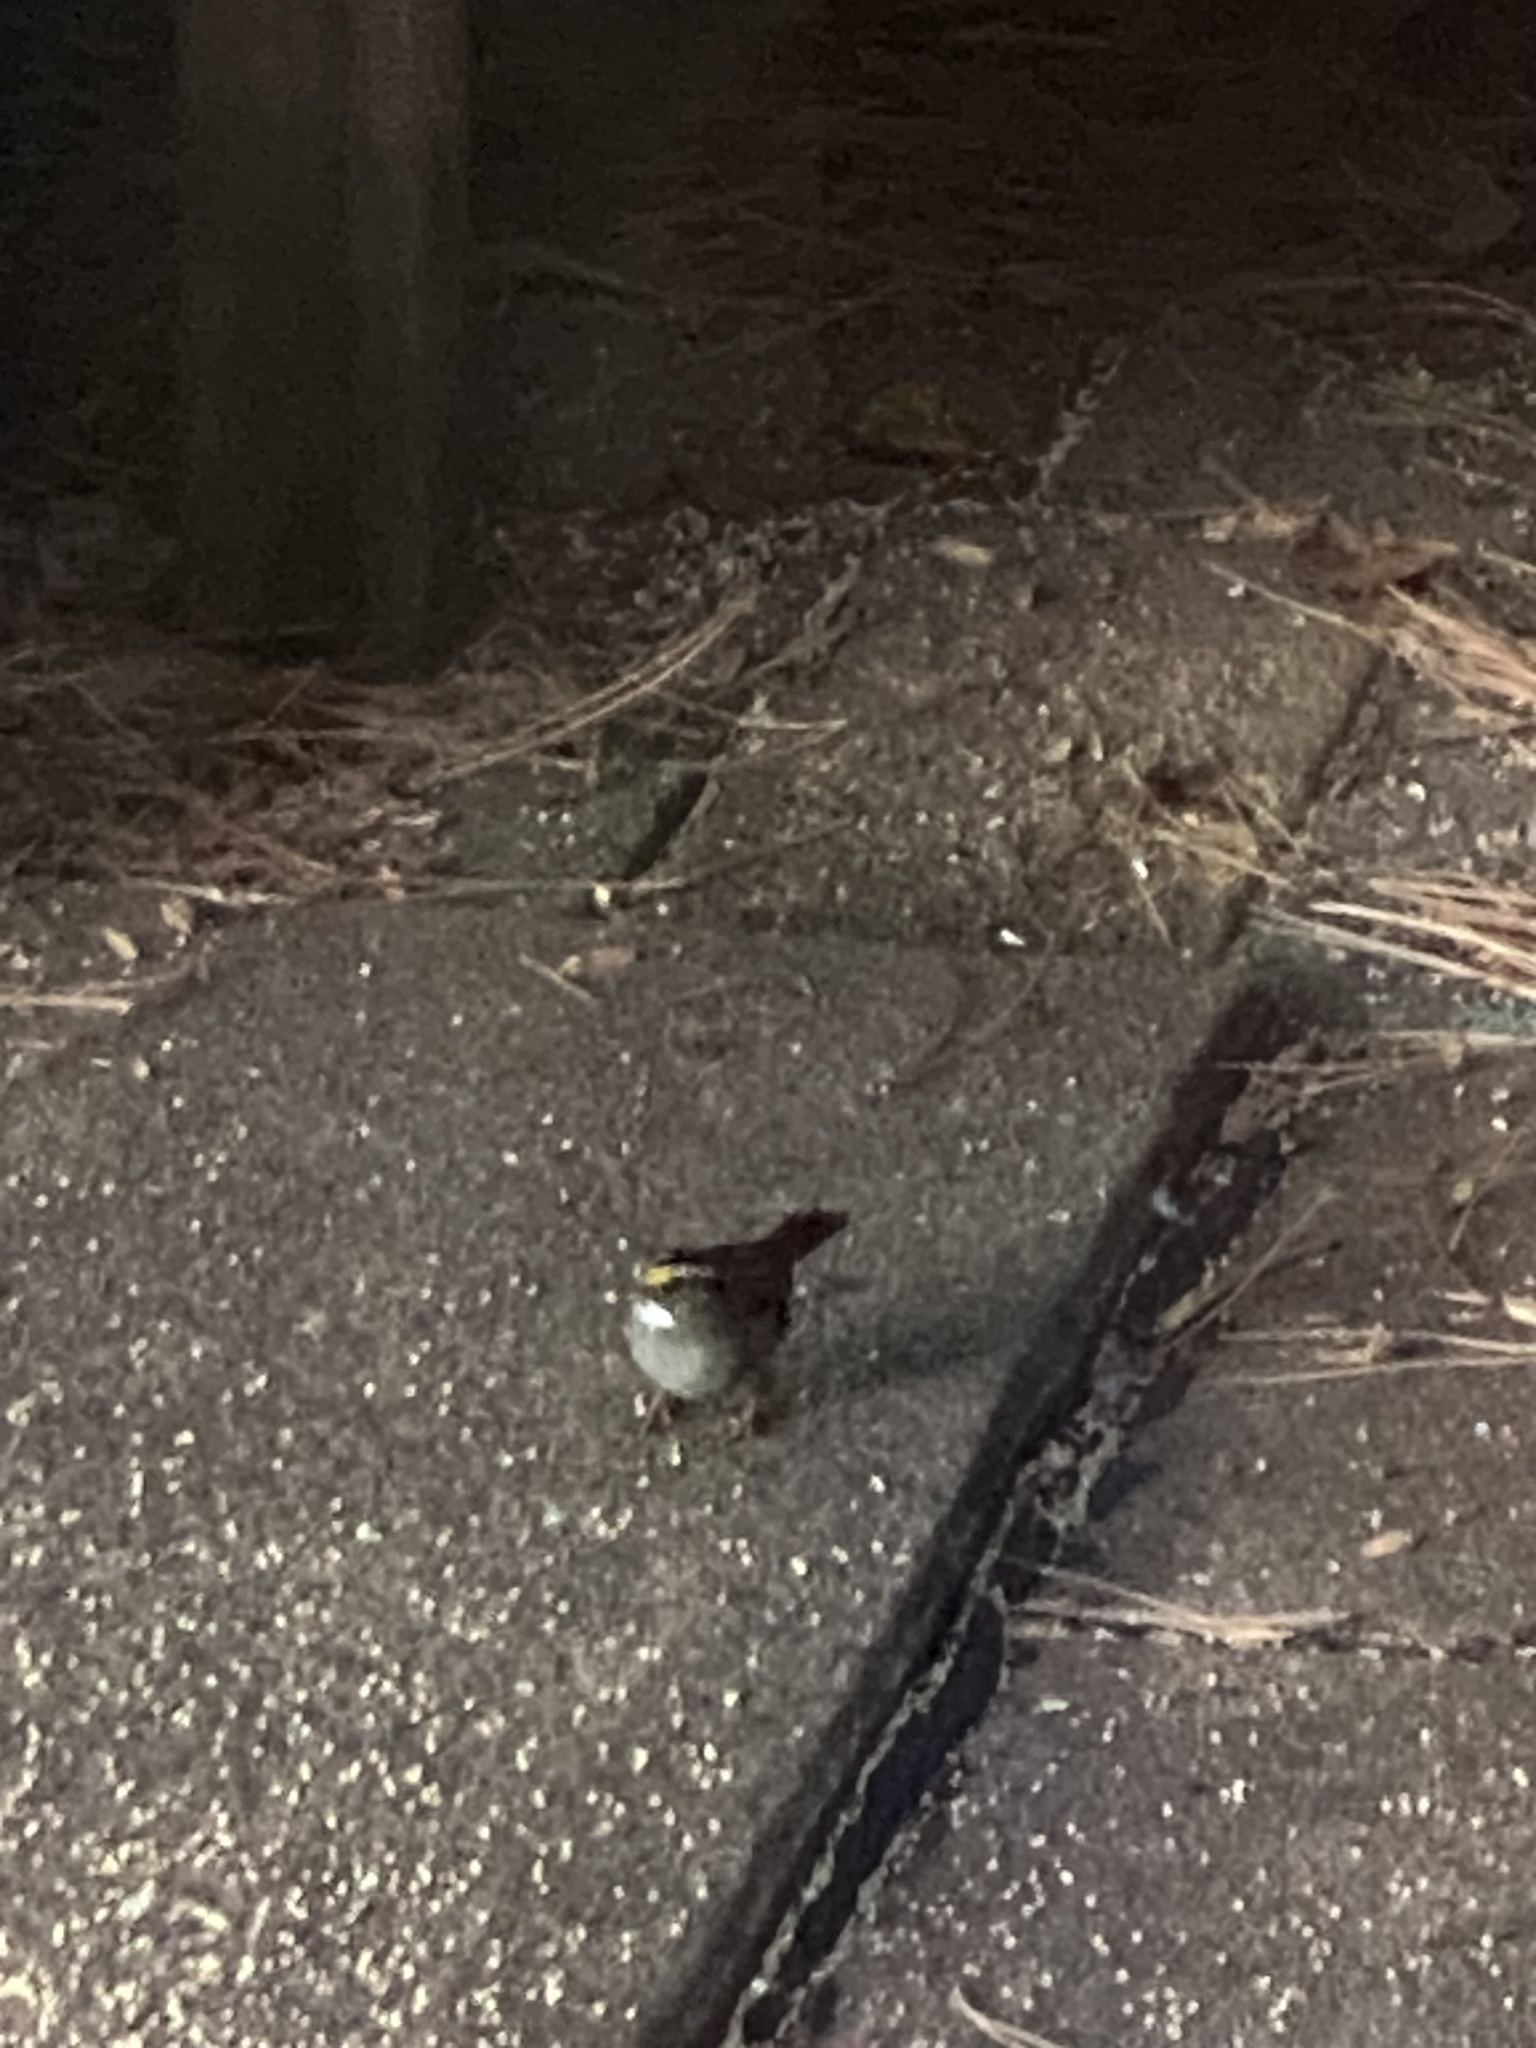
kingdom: Animalia
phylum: Chordata
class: Aves
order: Passeriformes
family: Passerellidae
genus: Zonotrichia
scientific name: Zonotrichia albicollis
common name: White-throated sparrow
